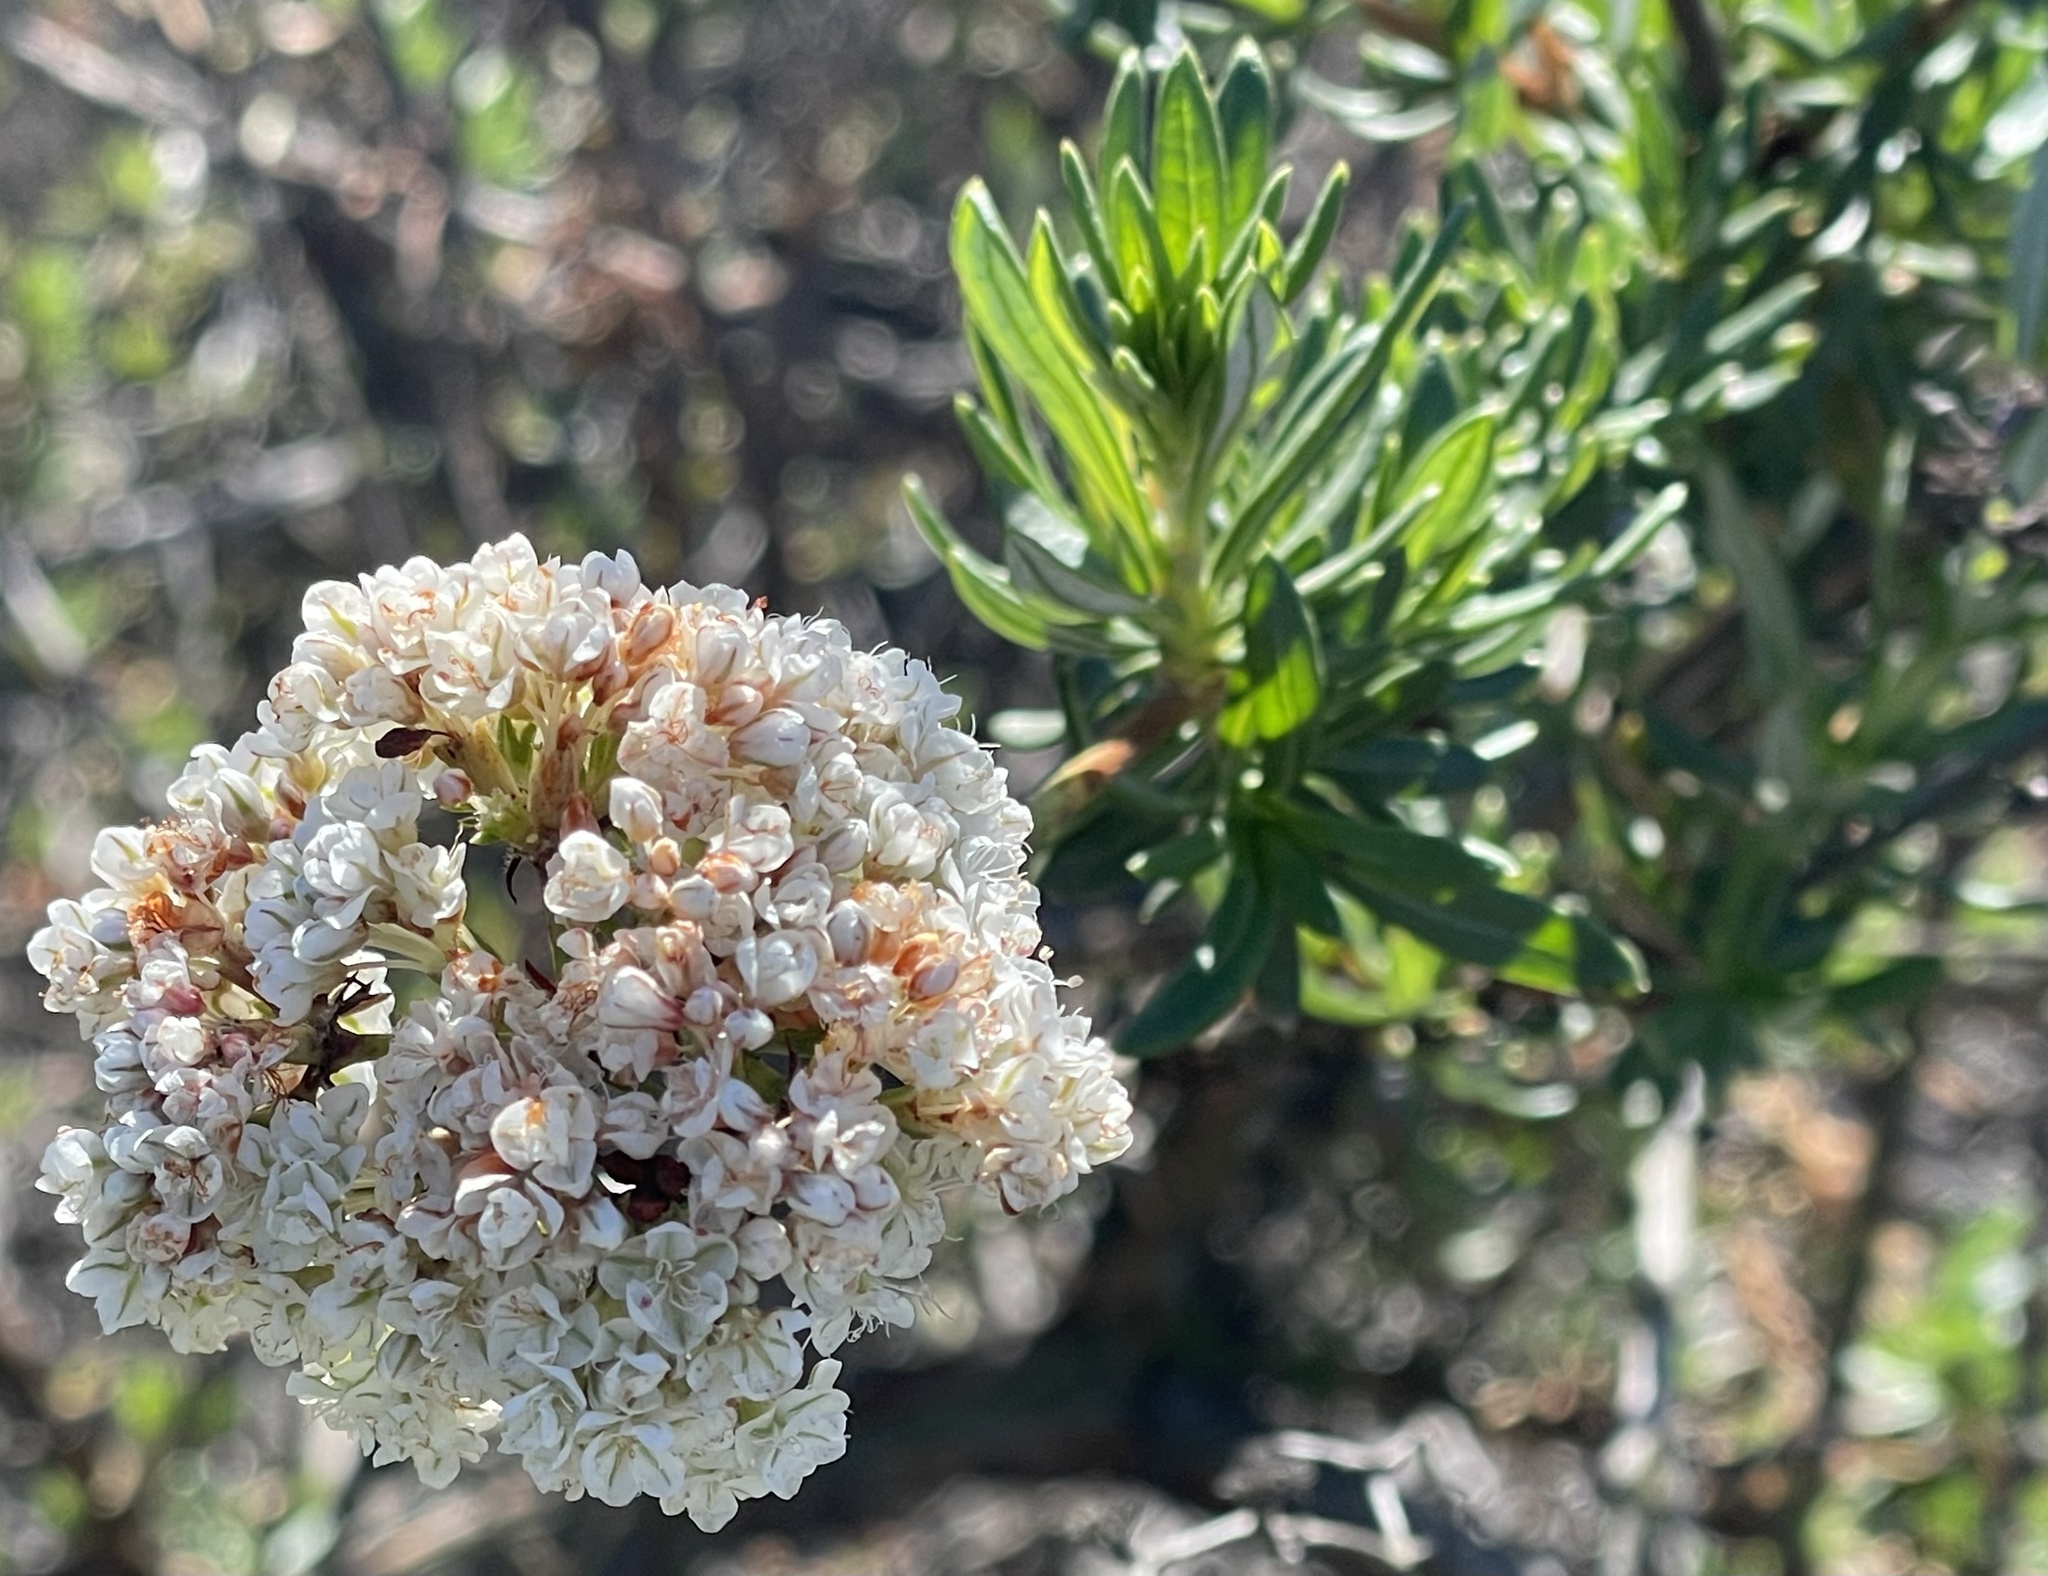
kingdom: Plantae
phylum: Tracheophyta
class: Magnoliopsida
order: Caryophyllales
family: Polygonaceae
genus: Eriogonum
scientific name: Eriogonum fasciculatum
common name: California wild buckwheat
